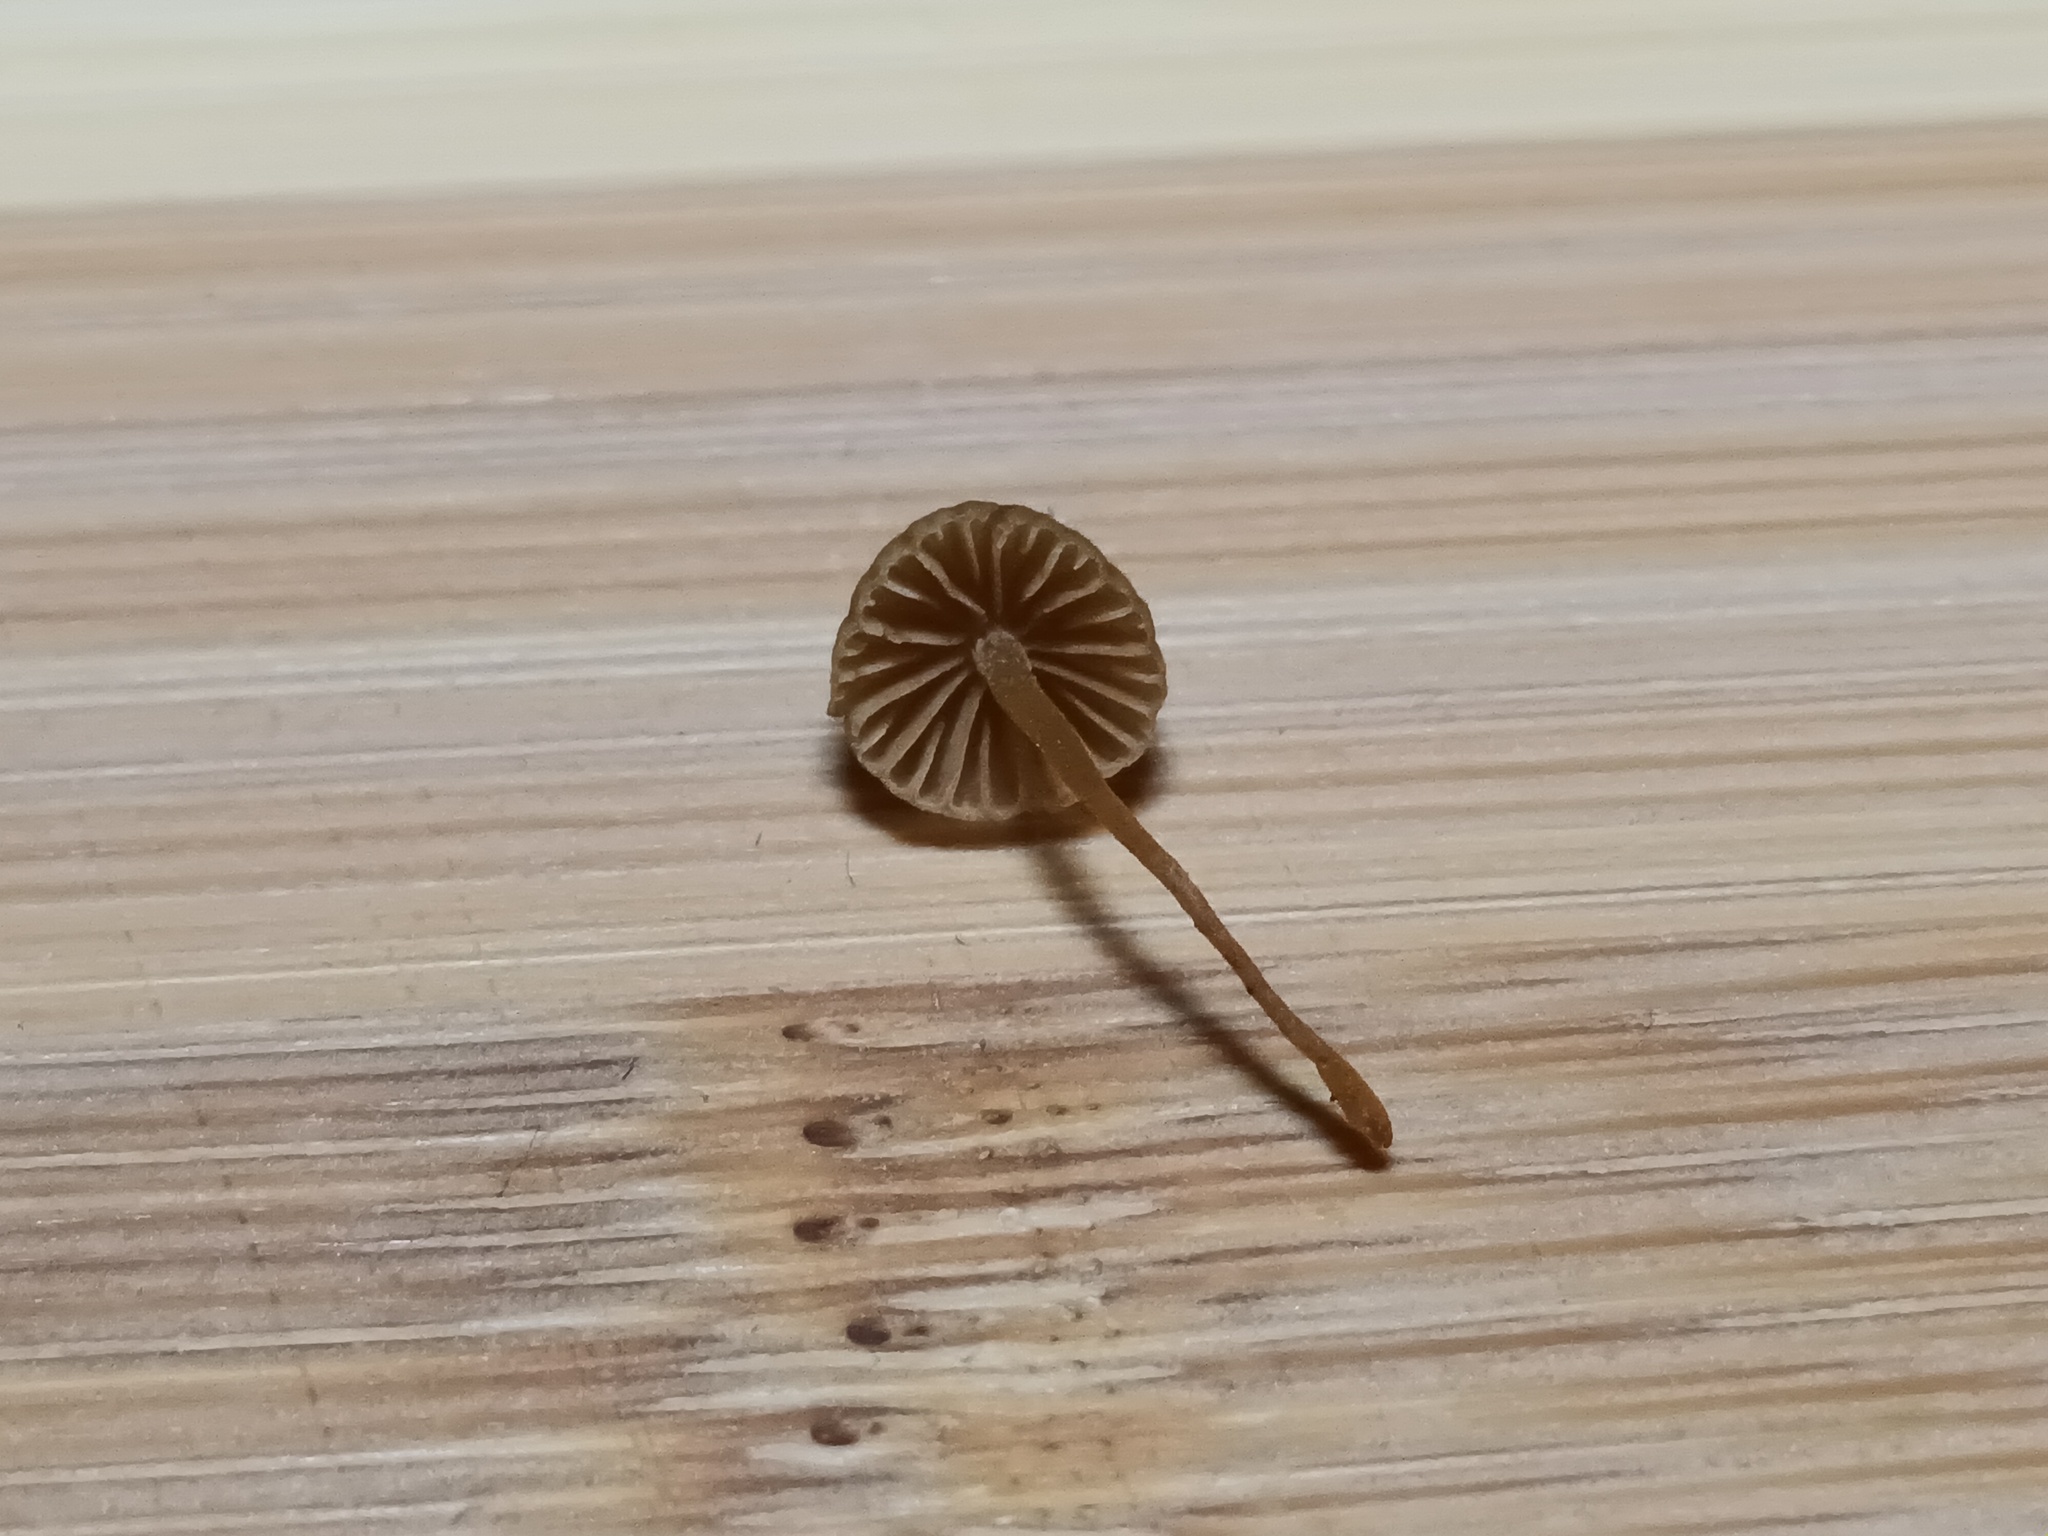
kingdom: Fungi
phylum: Basidiomycota
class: Agaricomycetes
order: Agaricales
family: Hymenogastraceae
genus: Galerina
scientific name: Galerina fallax
